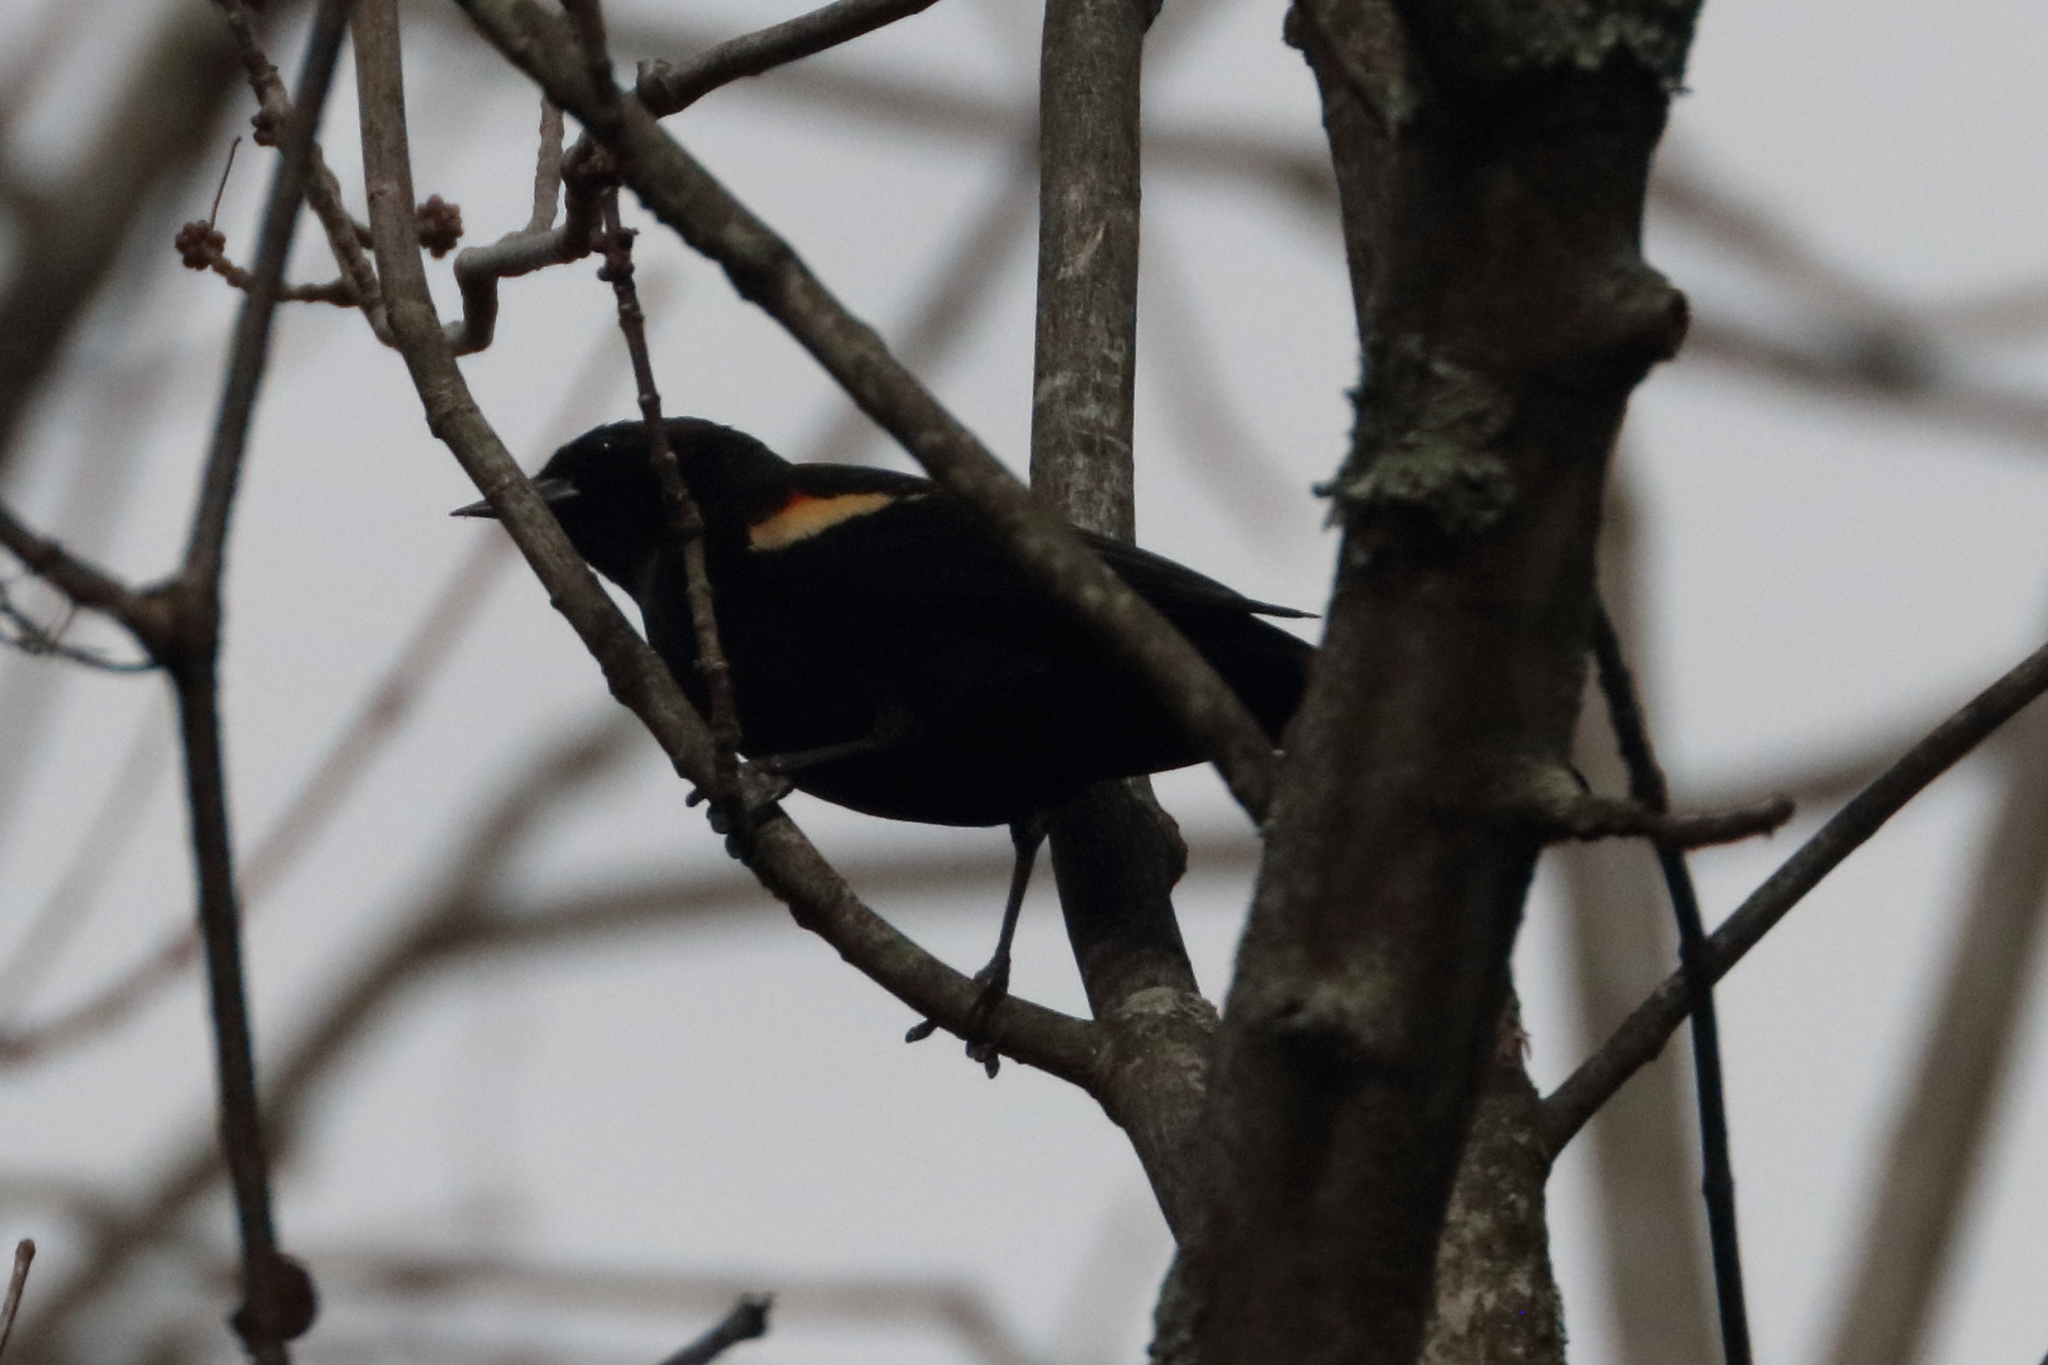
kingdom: Animalia
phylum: Chordata
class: Aves
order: Passeriformes
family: Icteridae
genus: Agelaius
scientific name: Agelaius phoeniceus
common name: Red-winged blackbird
